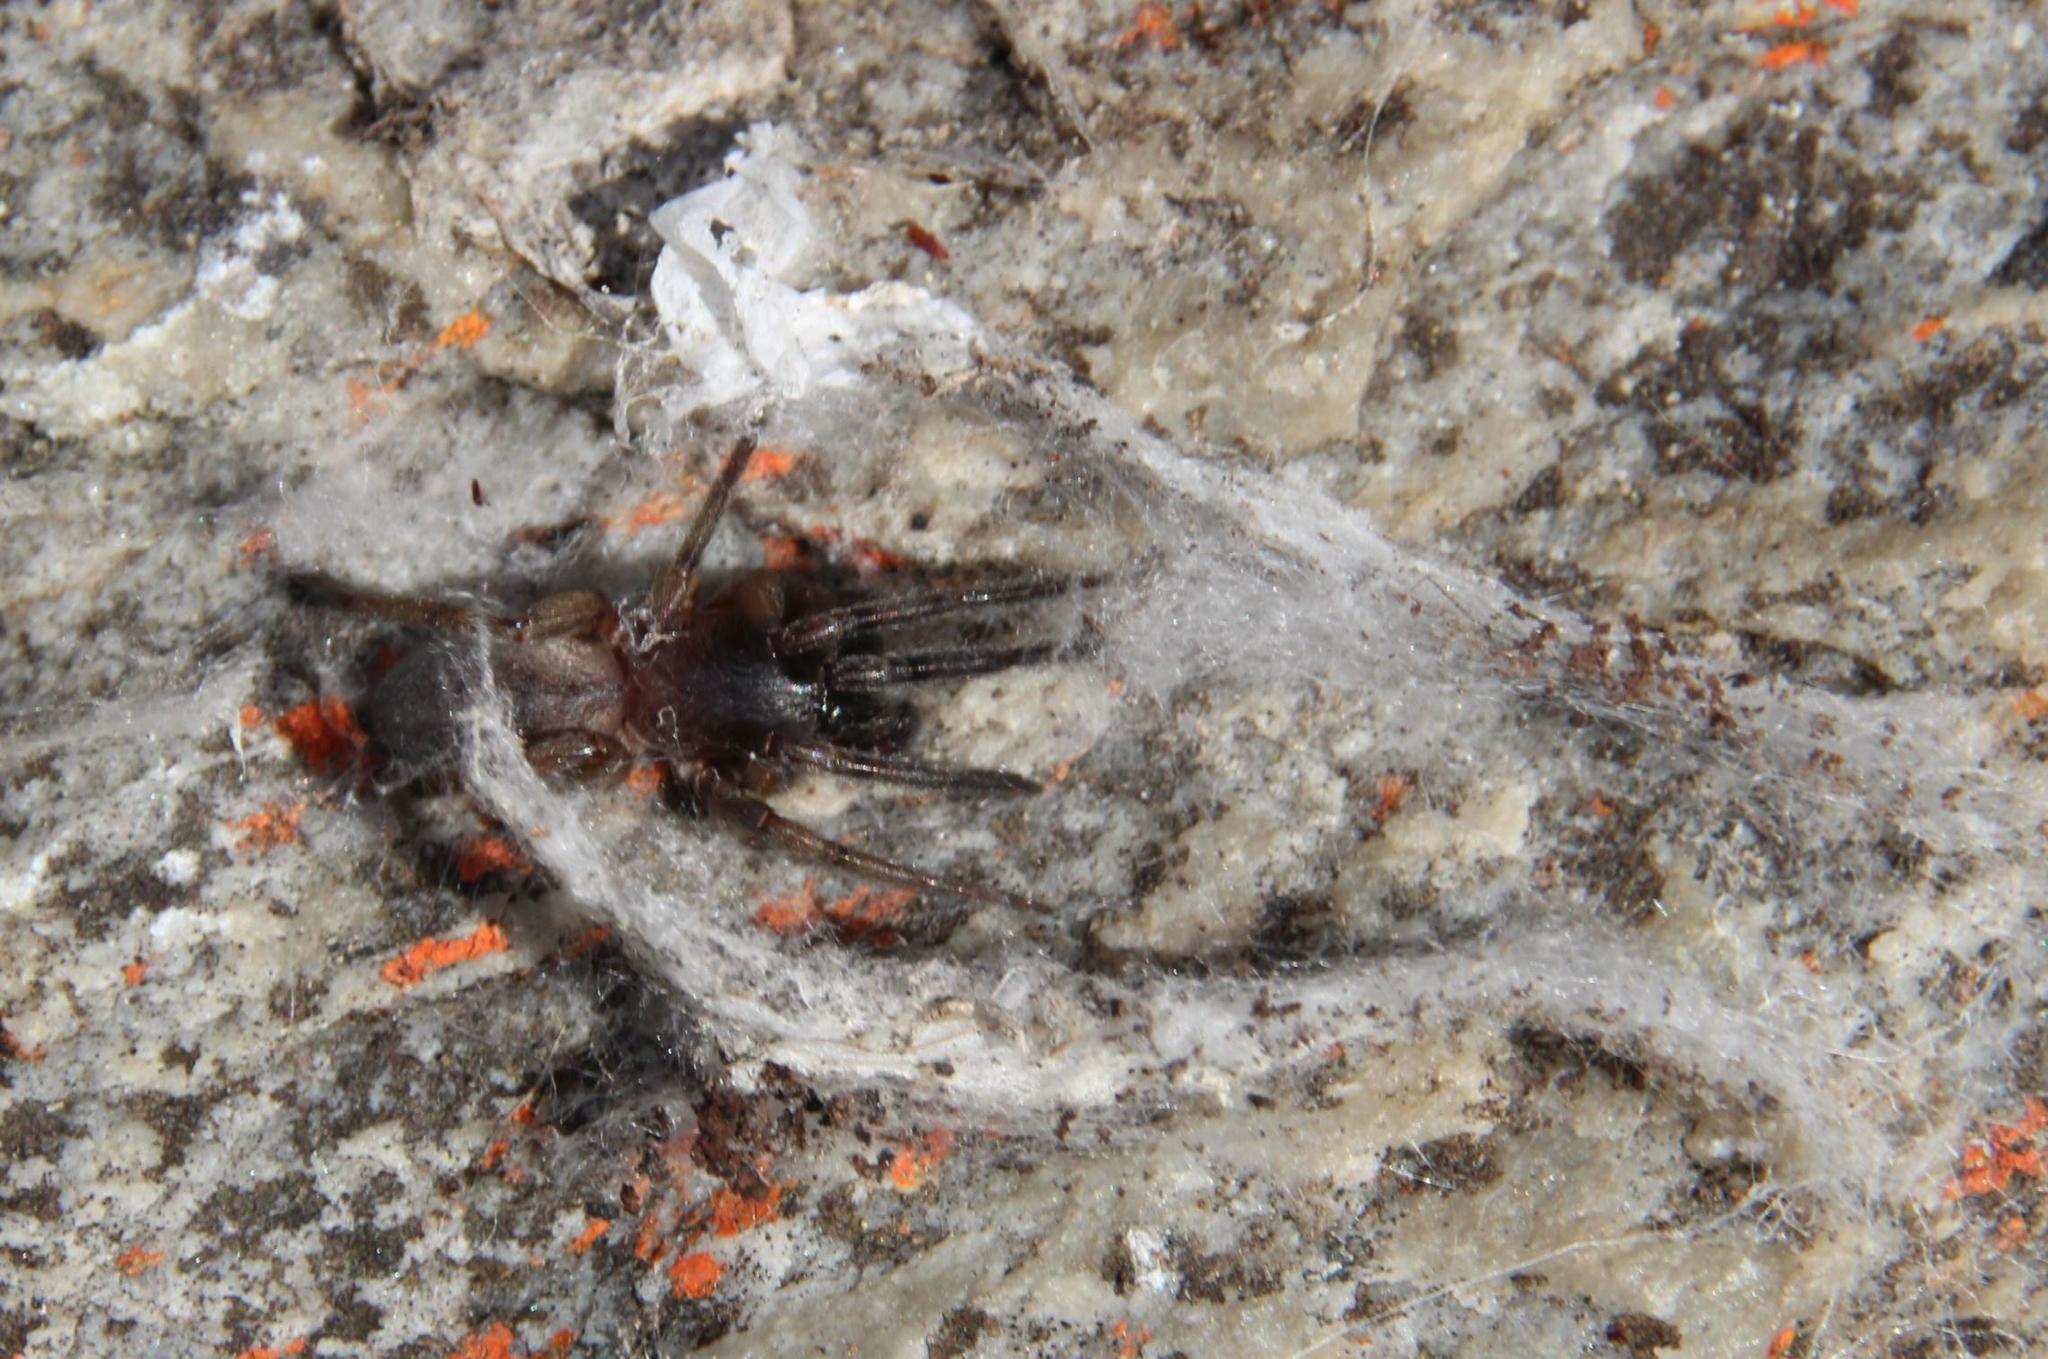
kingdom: Animalia
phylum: Arthropoda
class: Arachnida
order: Araneae
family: Phyxelididae
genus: Vidole
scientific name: Vidole capensis
